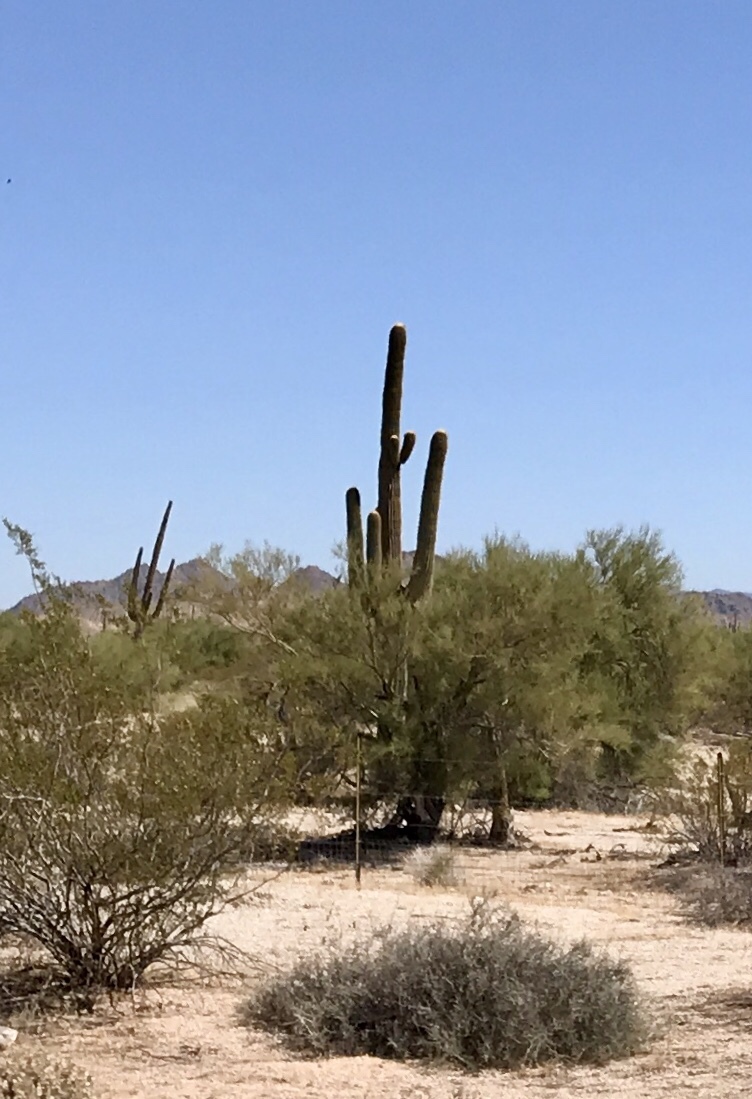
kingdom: Plantae
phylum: Tracheophyta
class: Magnoliopsida
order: Caryophyllales
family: Cactaceae
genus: Carnegiea
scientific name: Carnegiea gigantea
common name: Saguaro
